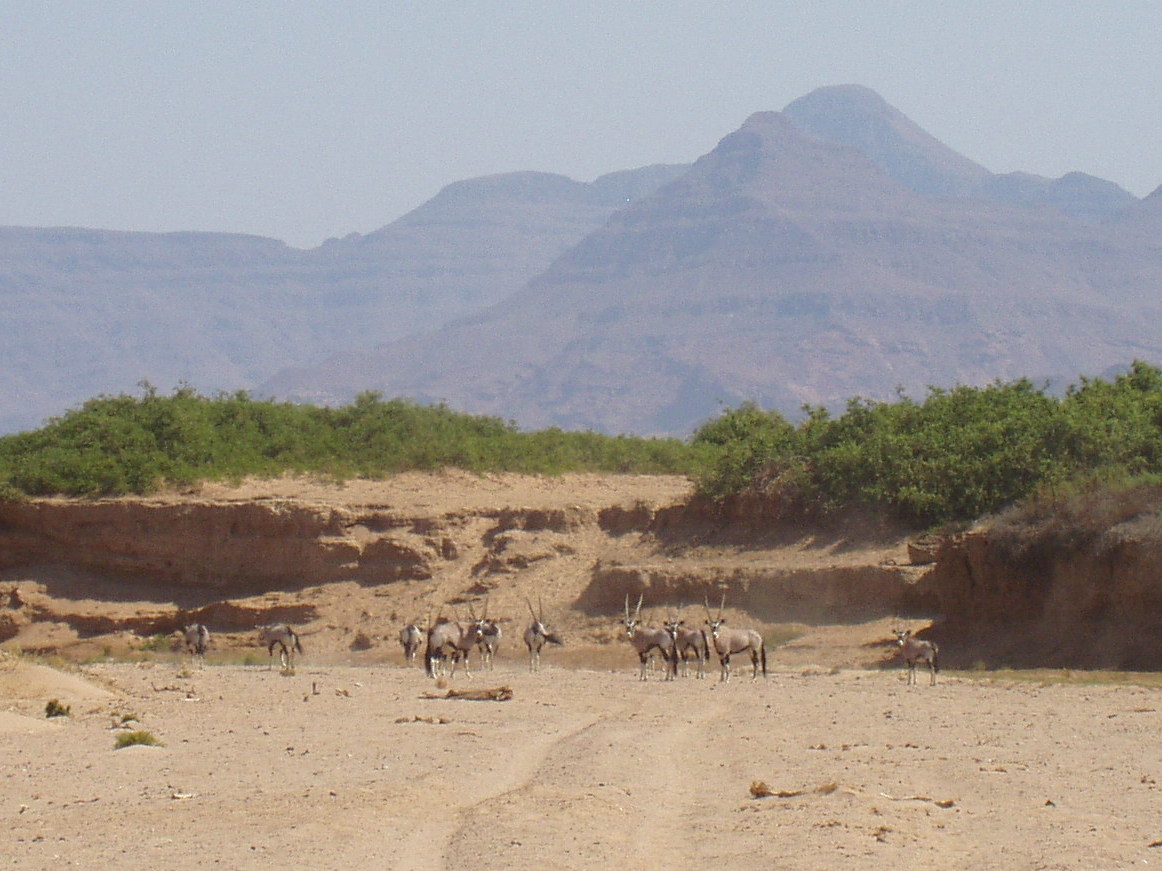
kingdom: Animalia
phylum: Chordata
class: Mammalia
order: Artiodactyla
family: Bovidae
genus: Oryx
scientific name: Oryx gazella
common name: Gemsbok
